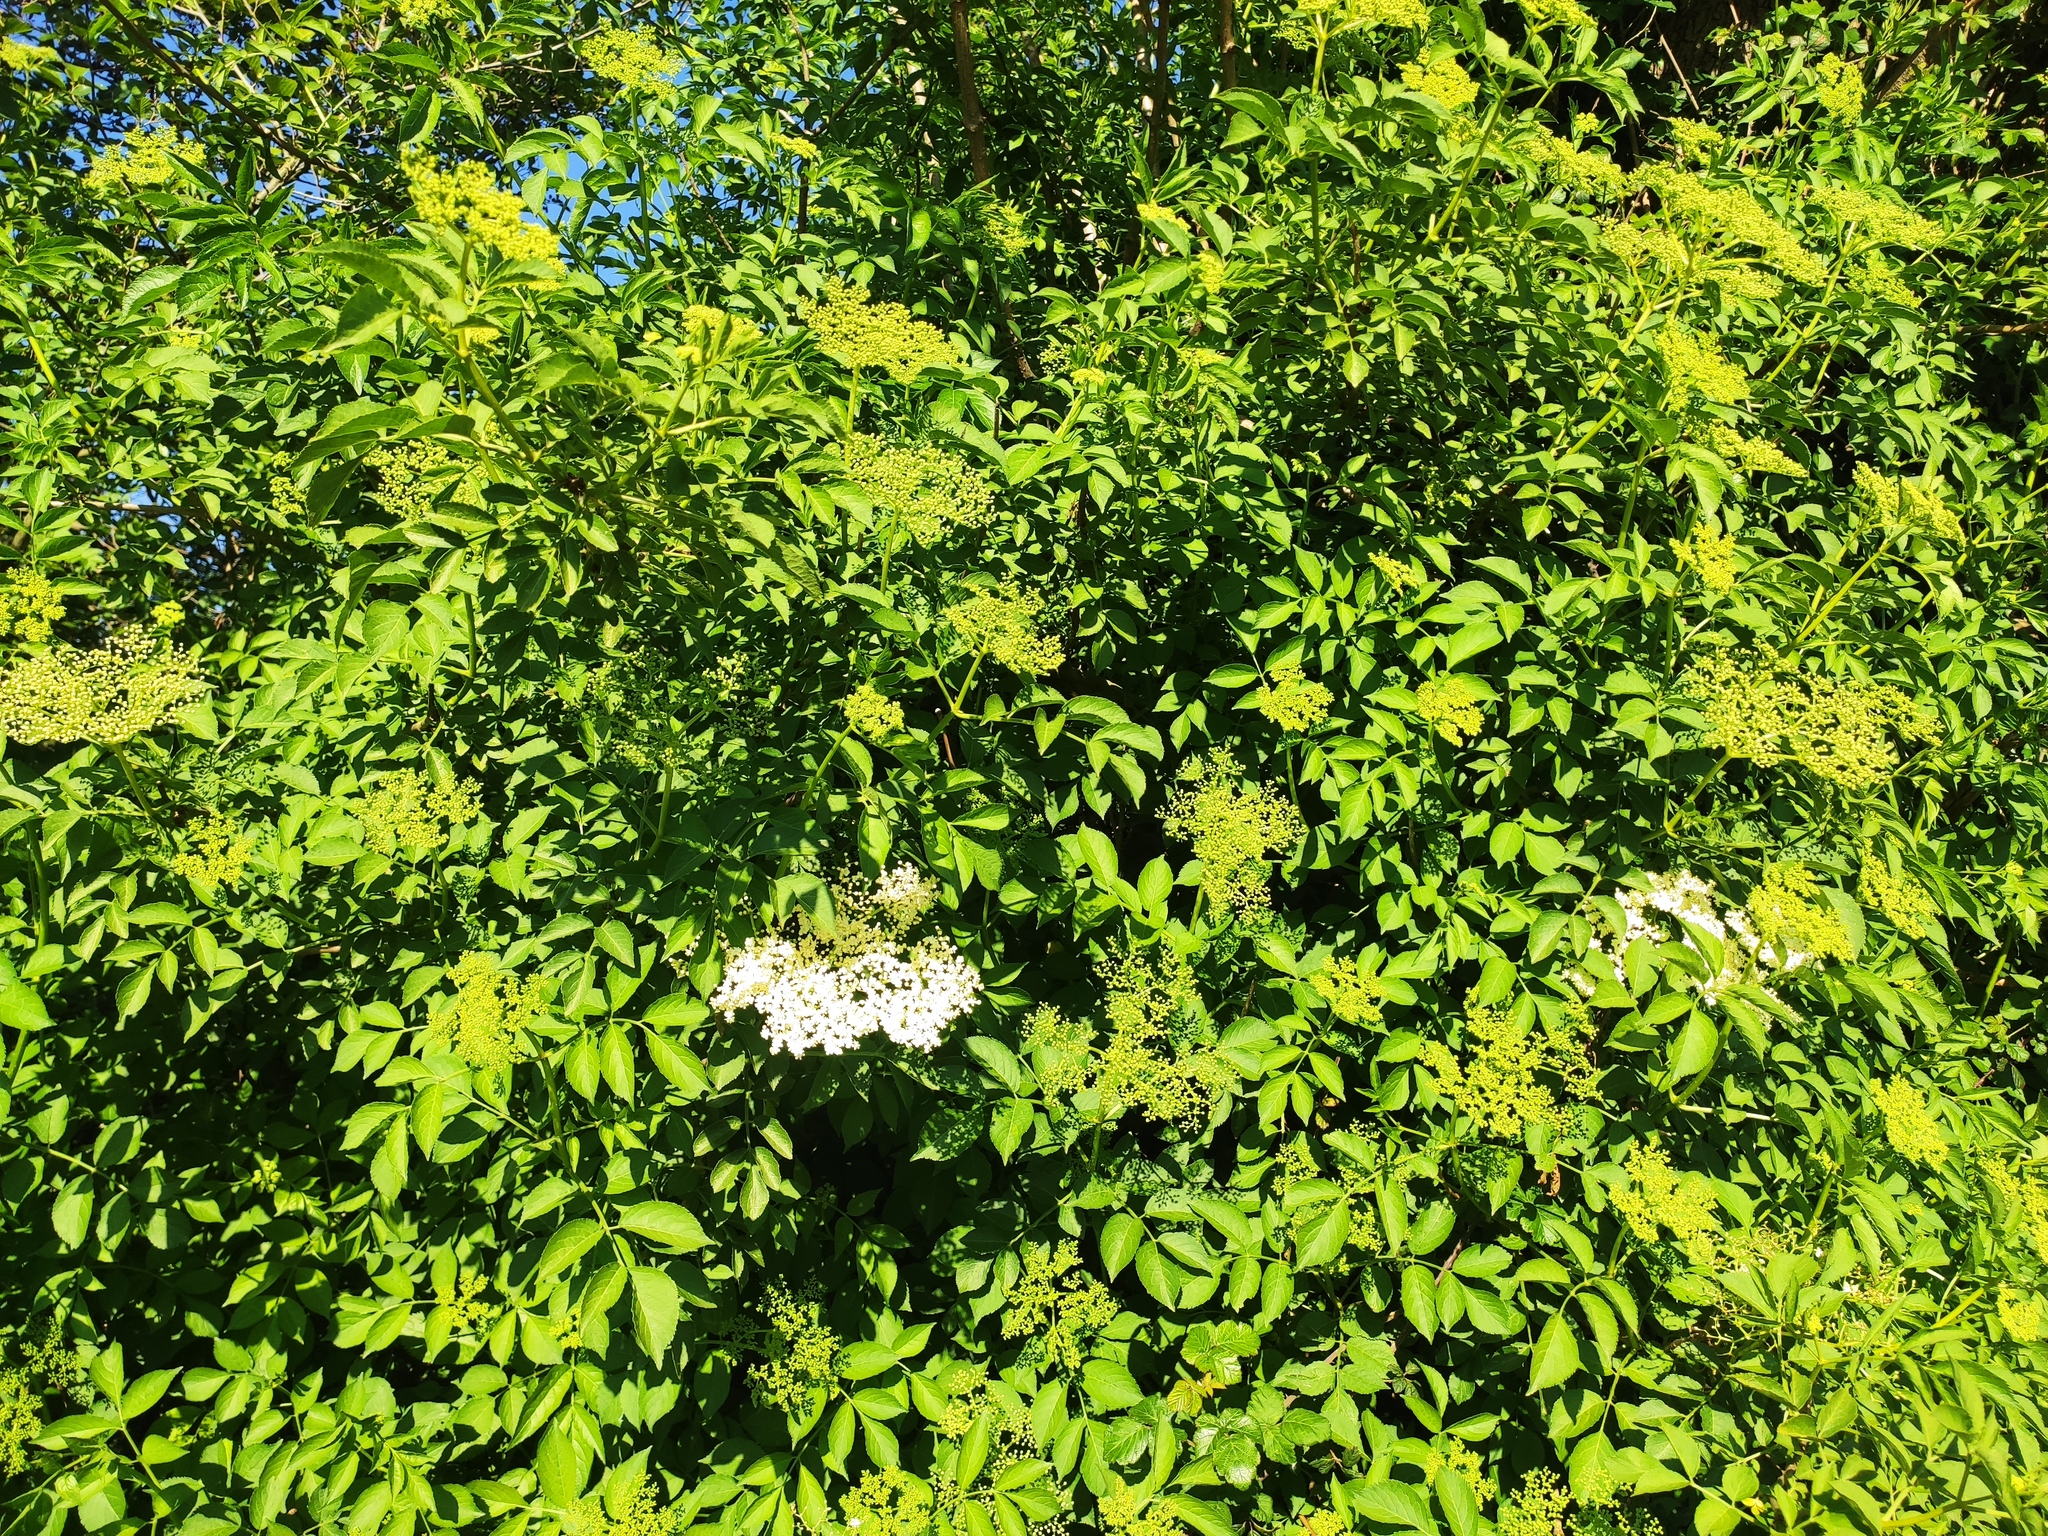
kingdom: Plantae
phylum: Tracheophyta
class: Magnoliopsida
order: Dipsacales
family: Viburnaceae
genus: Sambucus
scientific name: Sambucus nigra
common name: Elder
